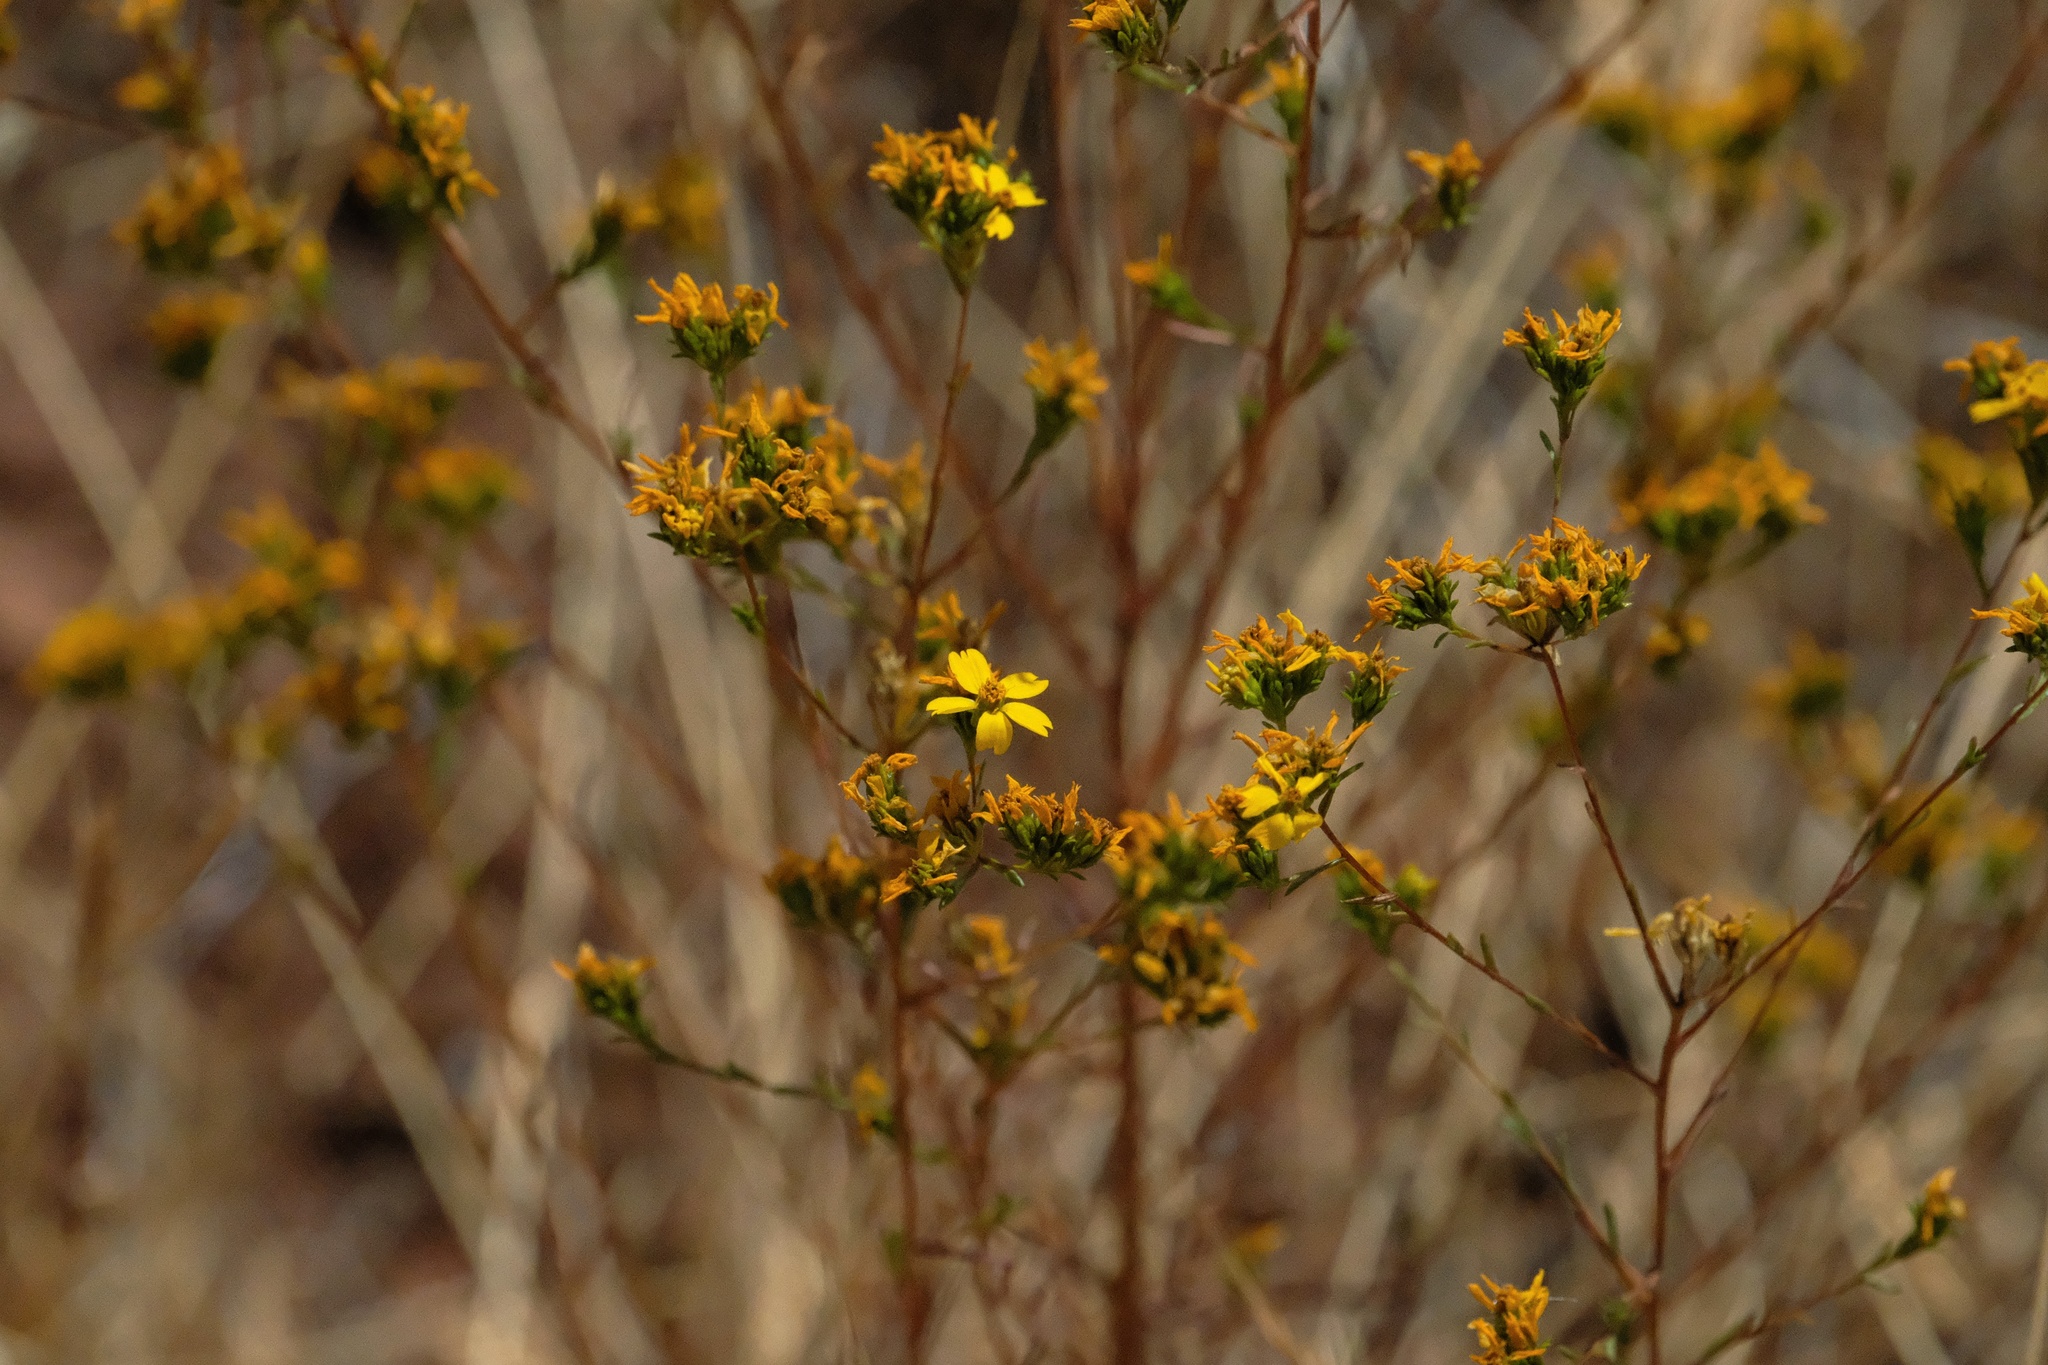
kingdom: Plantae
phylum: Tracheophyta
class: Magnoliopsida
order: Asterales
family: Asteraceae
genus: Deinandra
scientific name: Deinandra fasciculata
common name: Clustered tarweed
